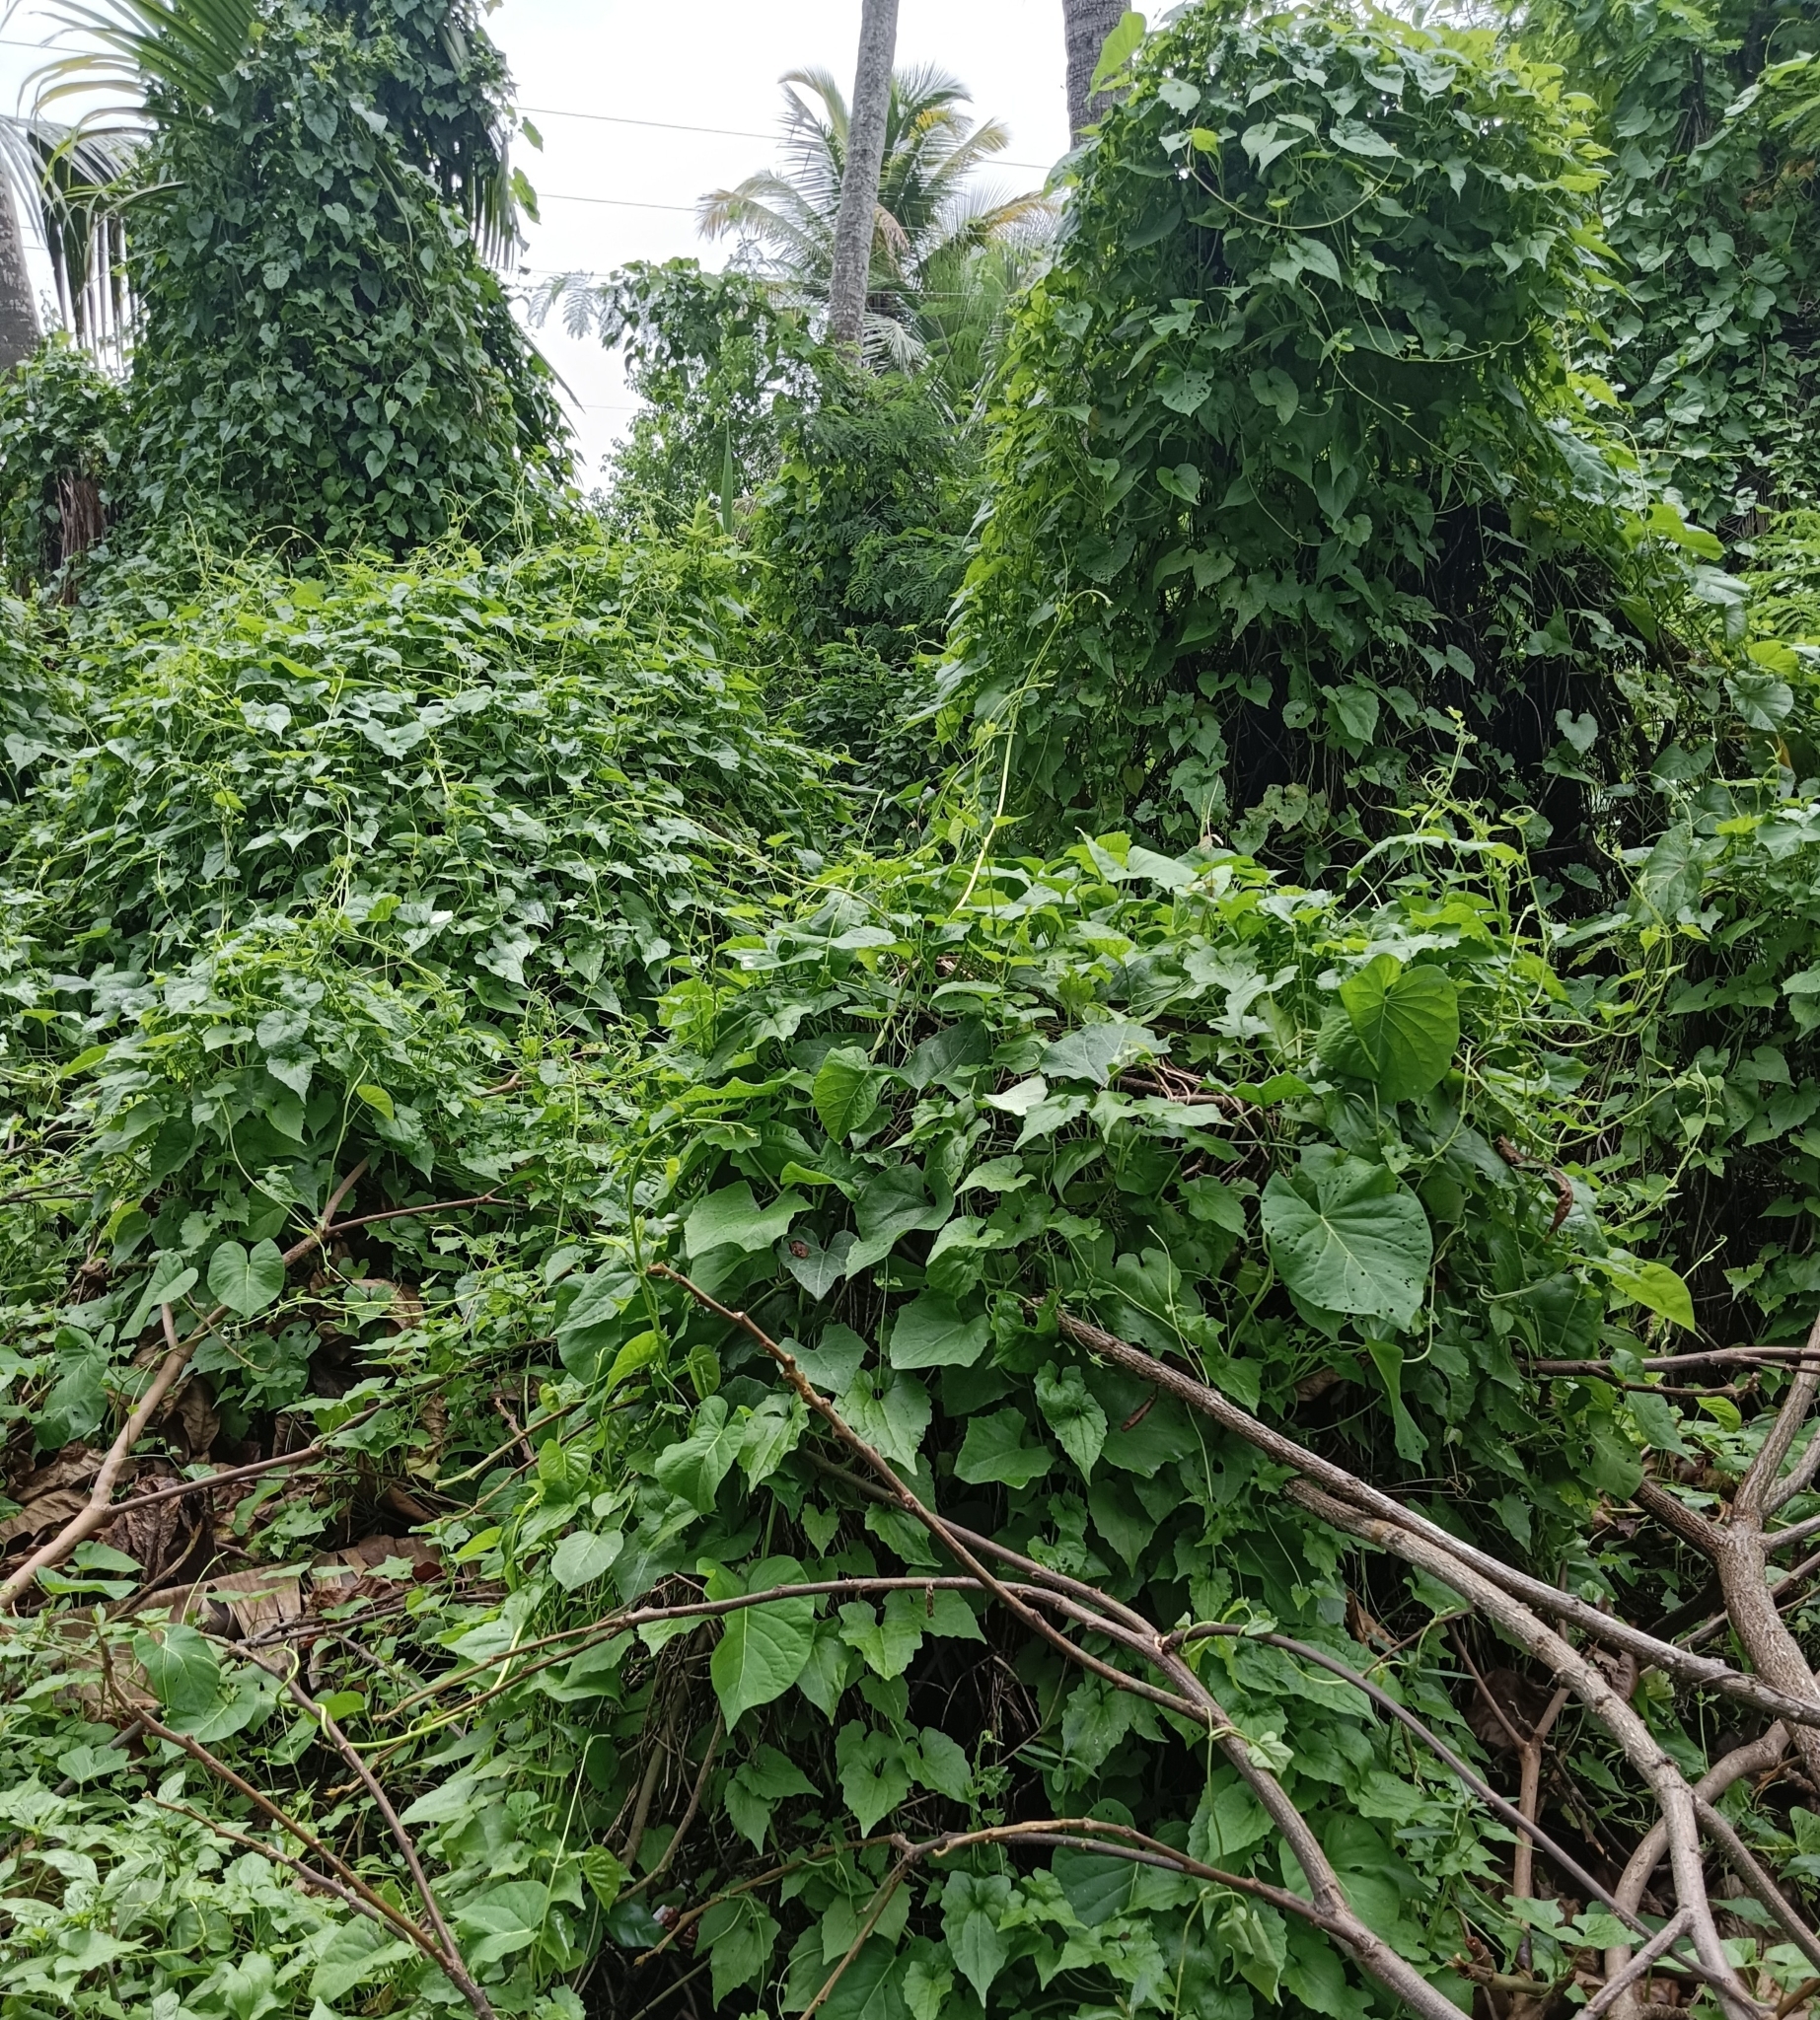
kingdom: Plantae
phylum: Tracheophyta
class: Magnoliopsida
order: Asterales
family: Asteraceae
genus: Mikania
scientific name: Mikania micrantha
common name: Mile-a-minute
